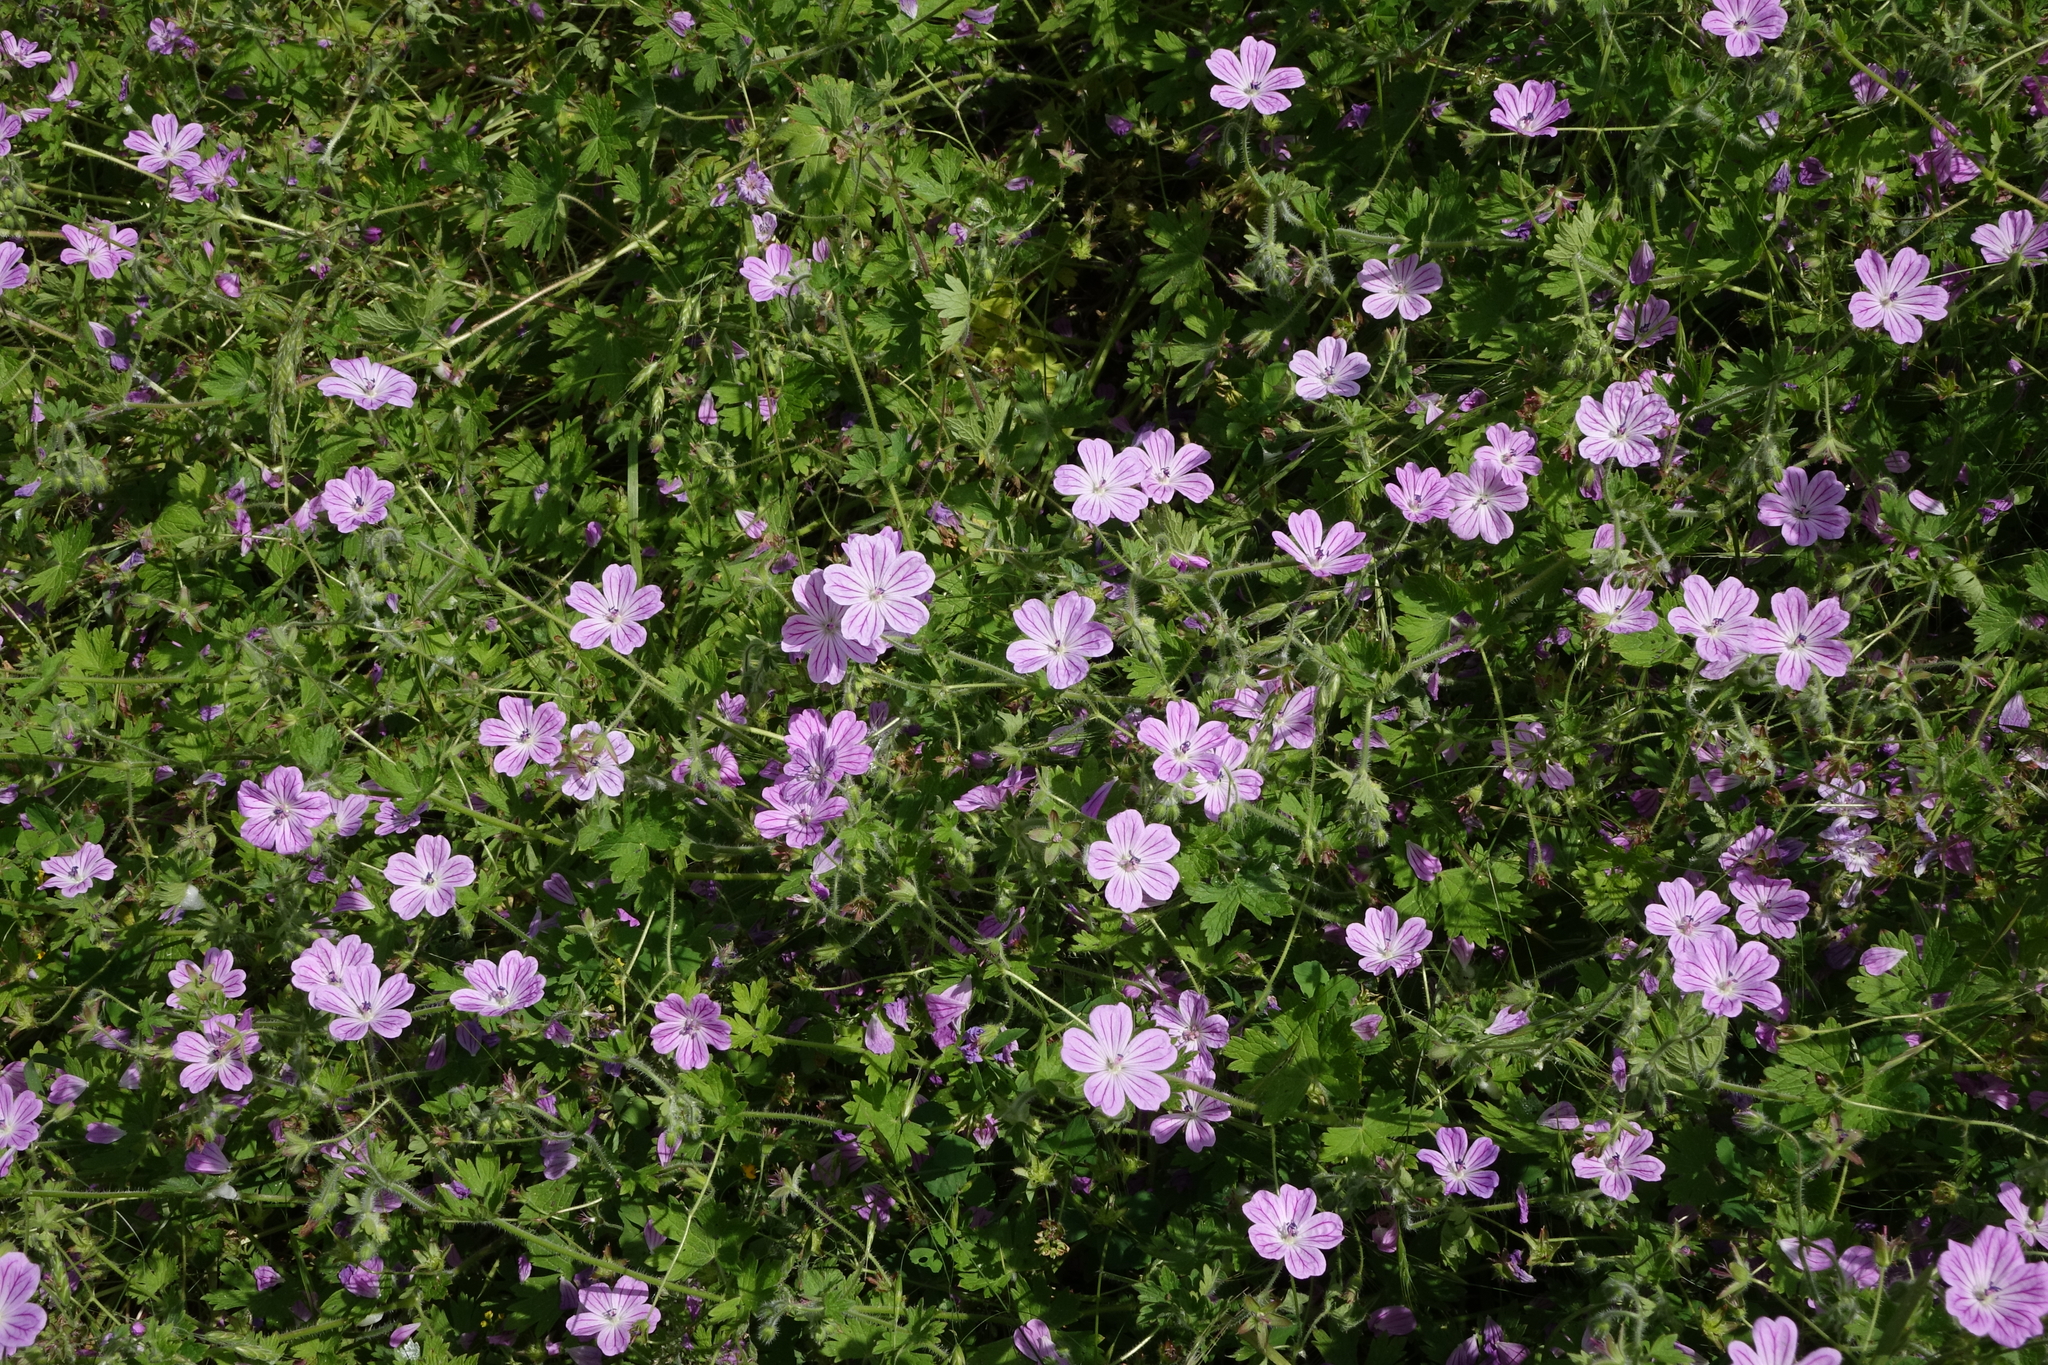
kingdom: Plantae
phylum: Tracheophyta
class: Magnoliopsida
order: Geraniales
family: Geraniaceae
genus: Geranium
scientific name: Geranium albanum
